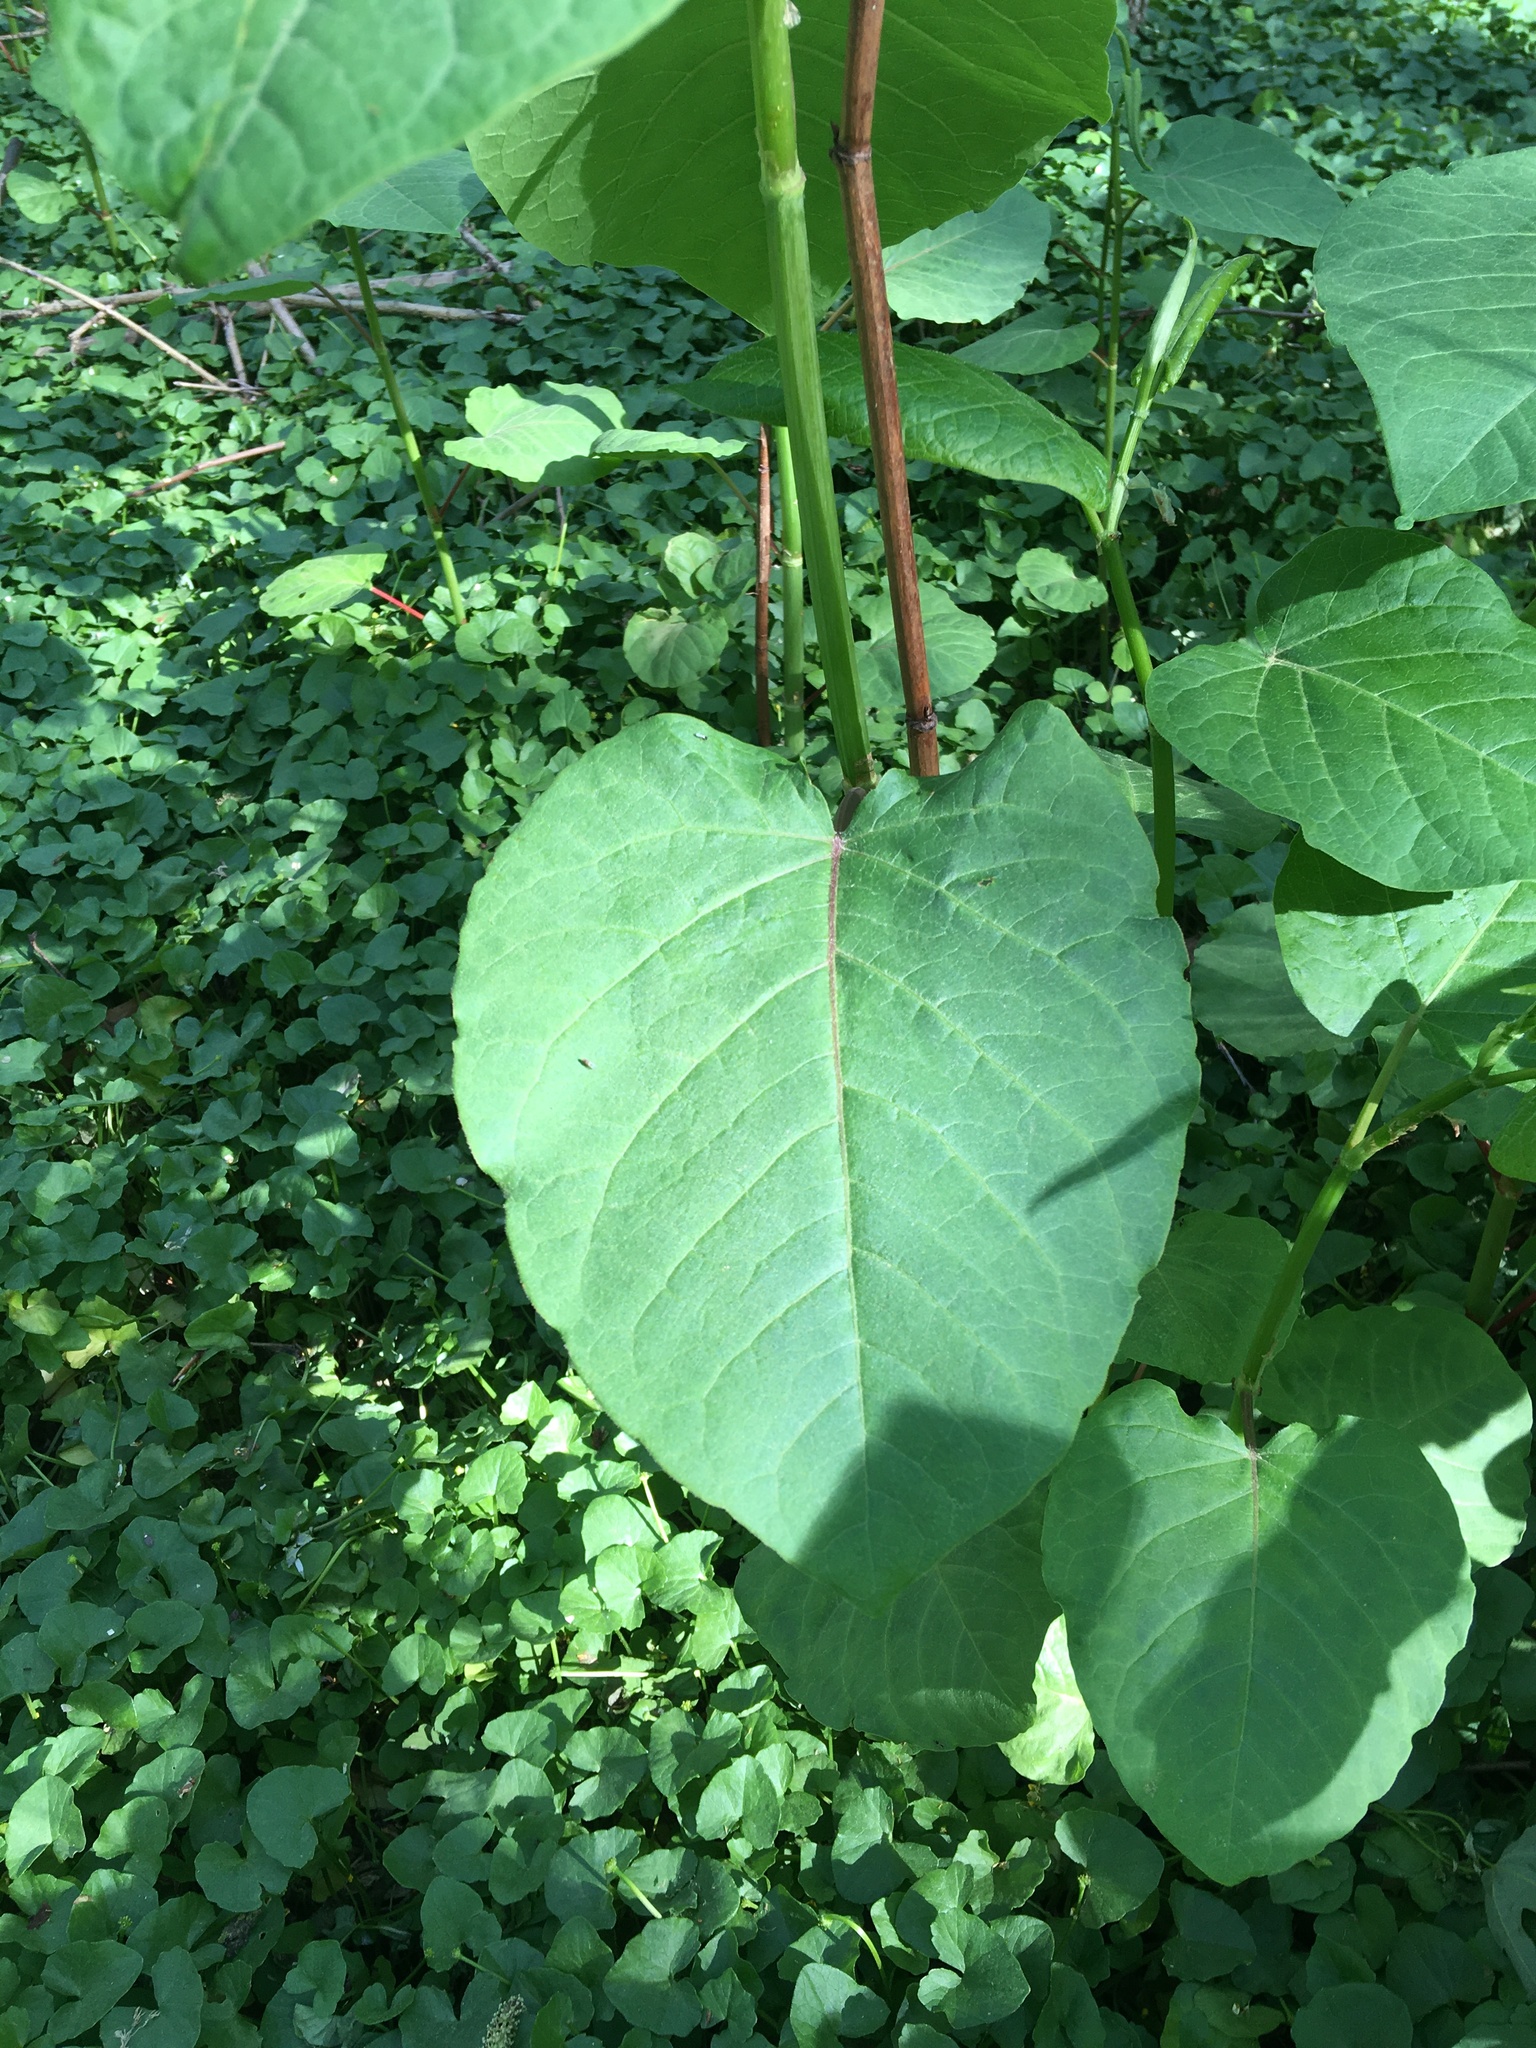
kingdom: Plantae
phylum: Tracheophyta
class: Magnoliopsida
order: Caryophyllales
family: Polygonaceae
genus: Reynoutria
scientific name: Reynoutria sachalinensis
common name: Giant knotweed
